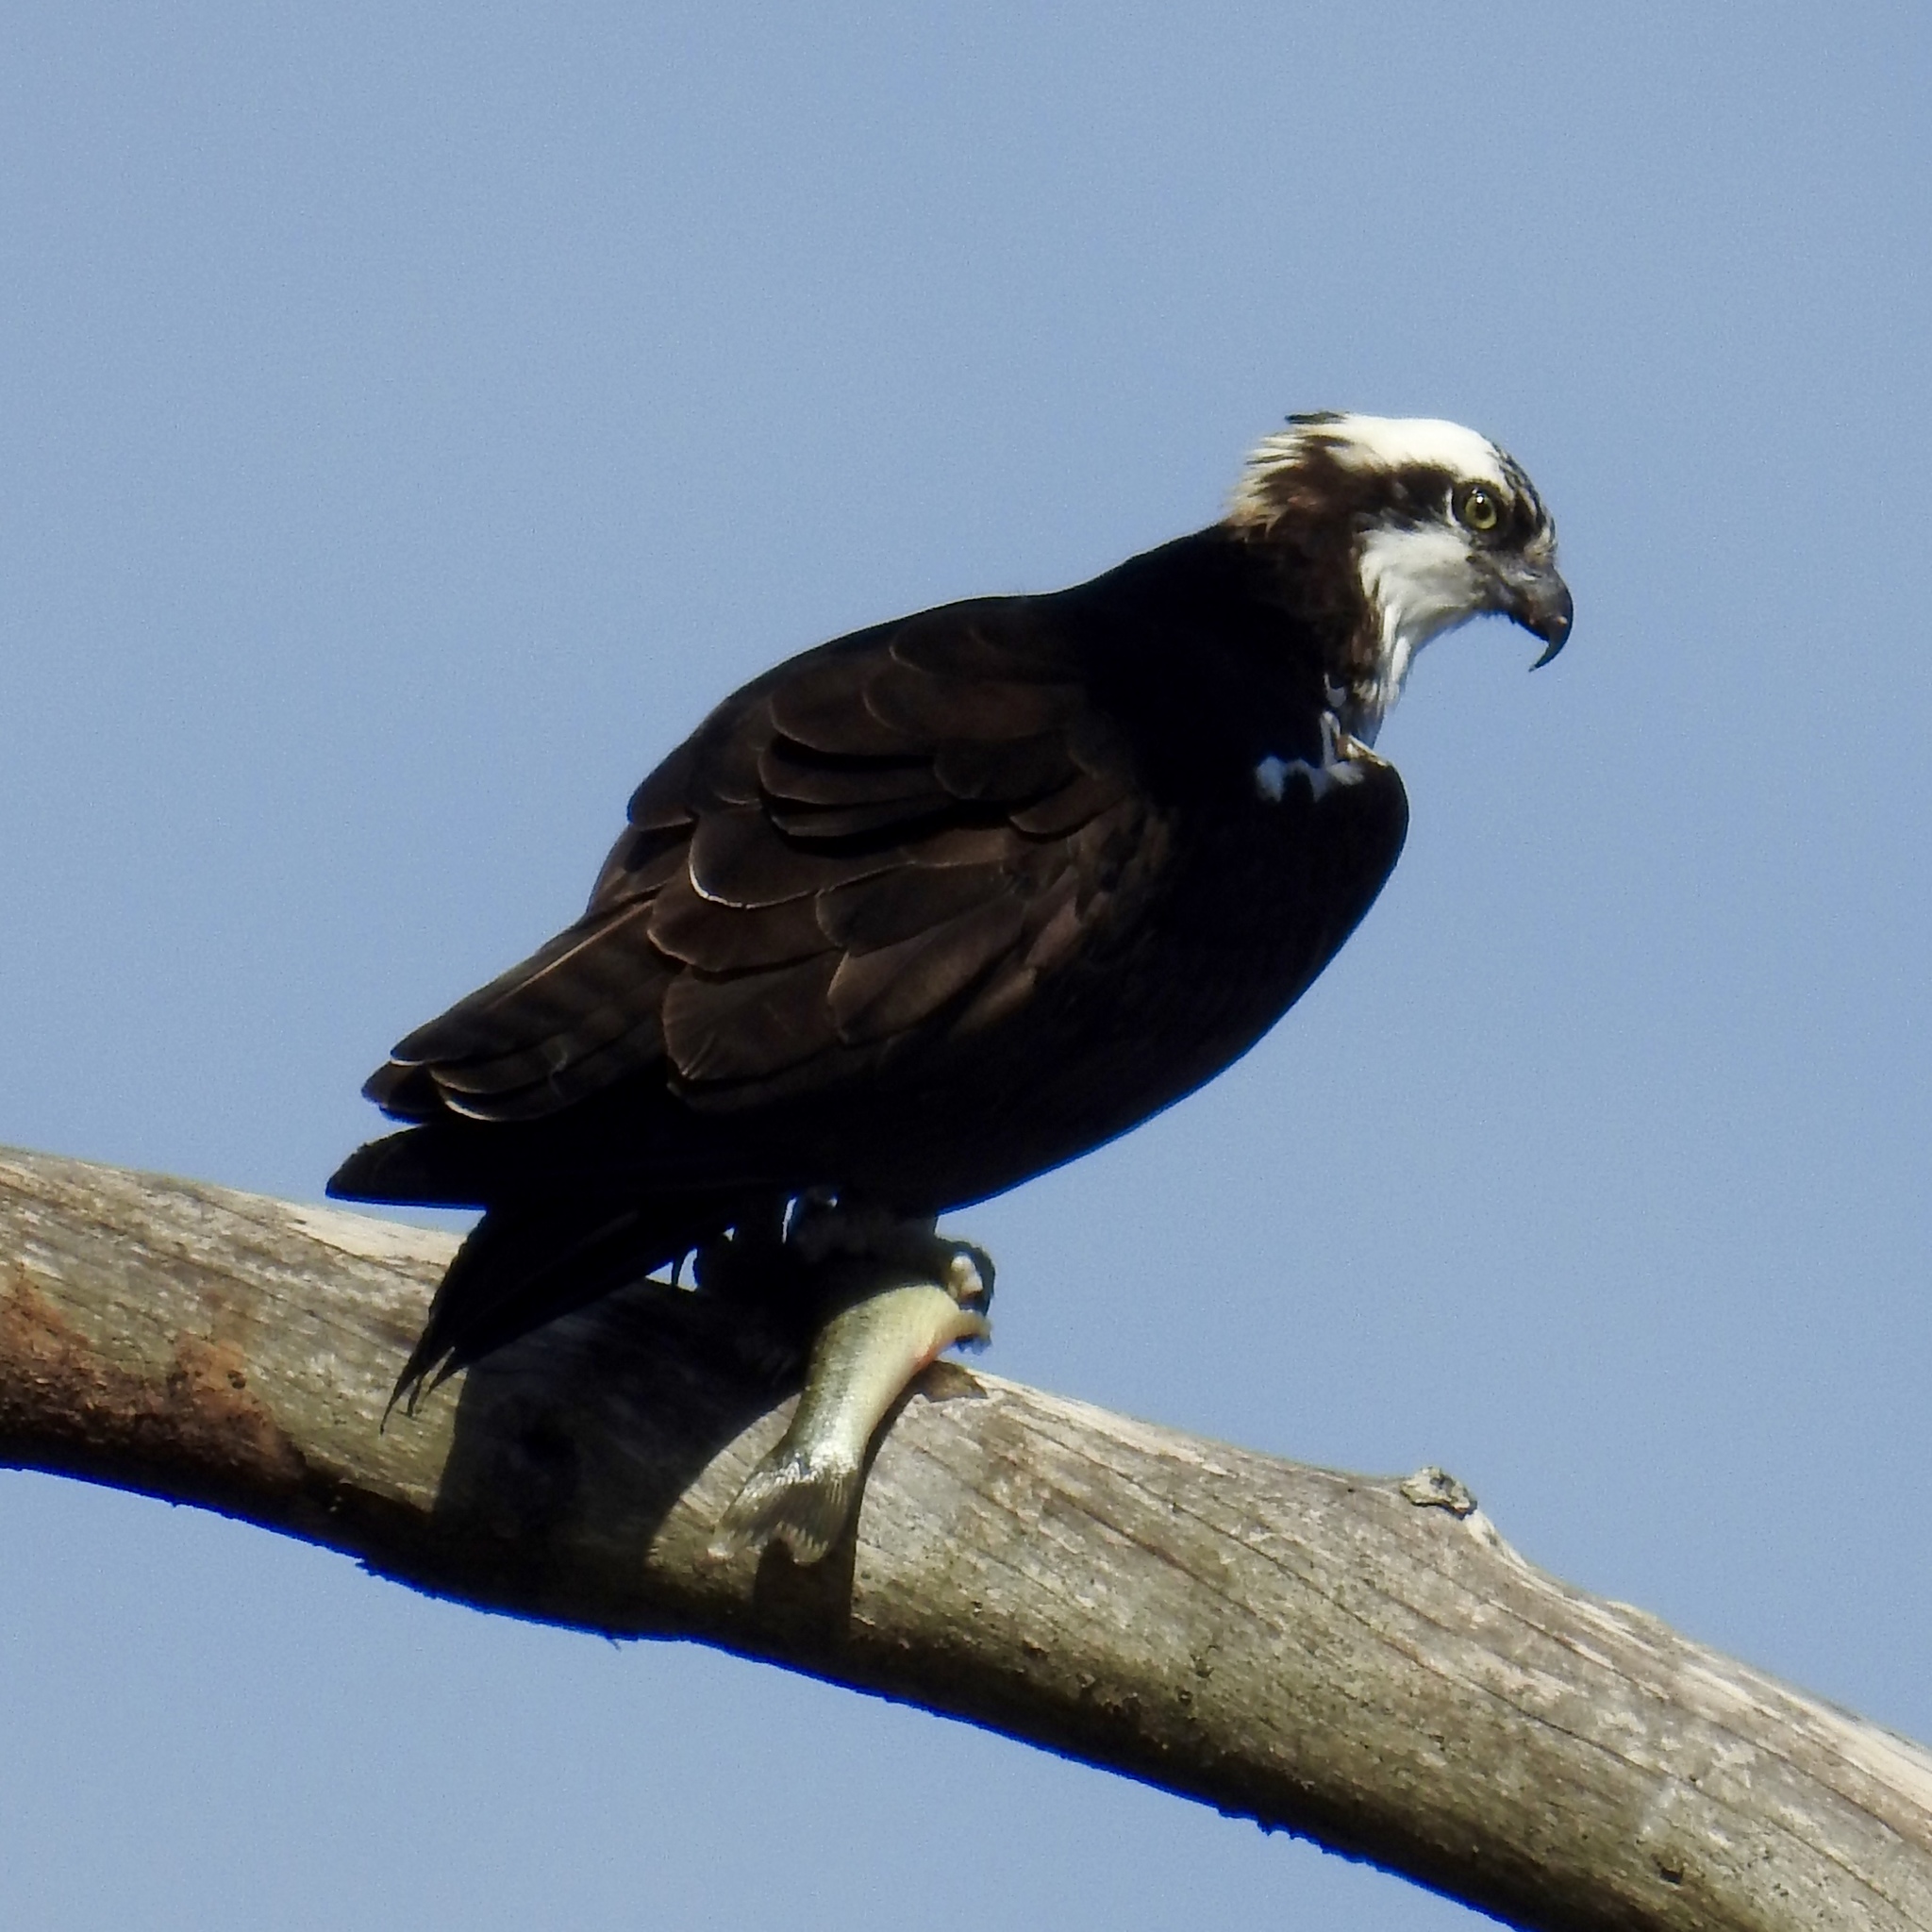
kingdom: Animalia
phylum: Chordata
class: Aves
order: Accipitriformes
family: Pandionidae
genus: Pandion
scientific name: Pandion haliaetus
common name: Osprey
